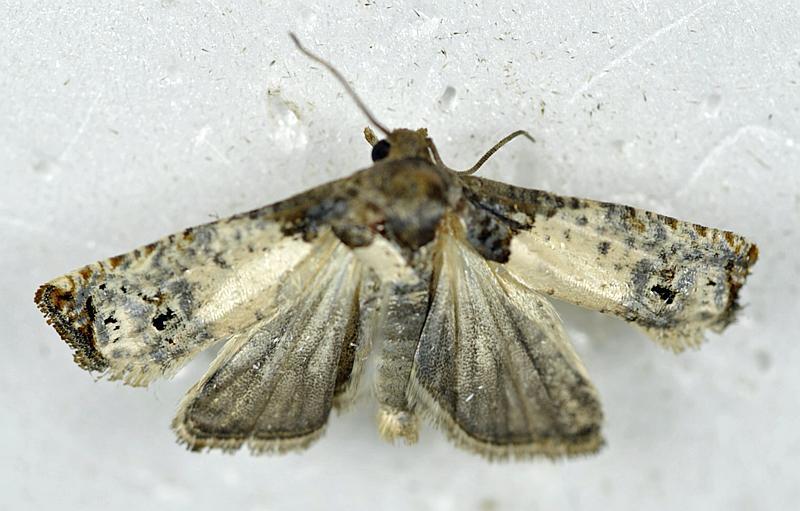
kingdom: Animalia
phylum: Arthropoda
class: Insecta
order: Lepidoptera
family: Tortricidae
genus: Epiblema
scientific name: Epiblema scudderiana
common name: Goldenrod gall moth
